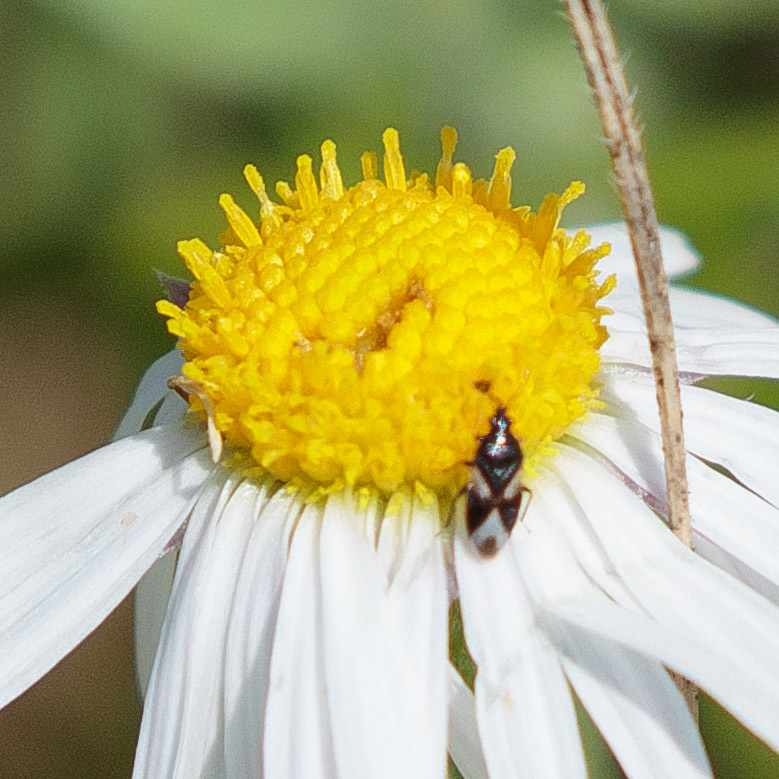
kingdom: Animalia
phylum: Arthropoda
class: Insecta
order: Hemiptera
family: Anthocoridae
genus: Orius
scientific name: Orius tristicolor
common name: Minute pirate bug
